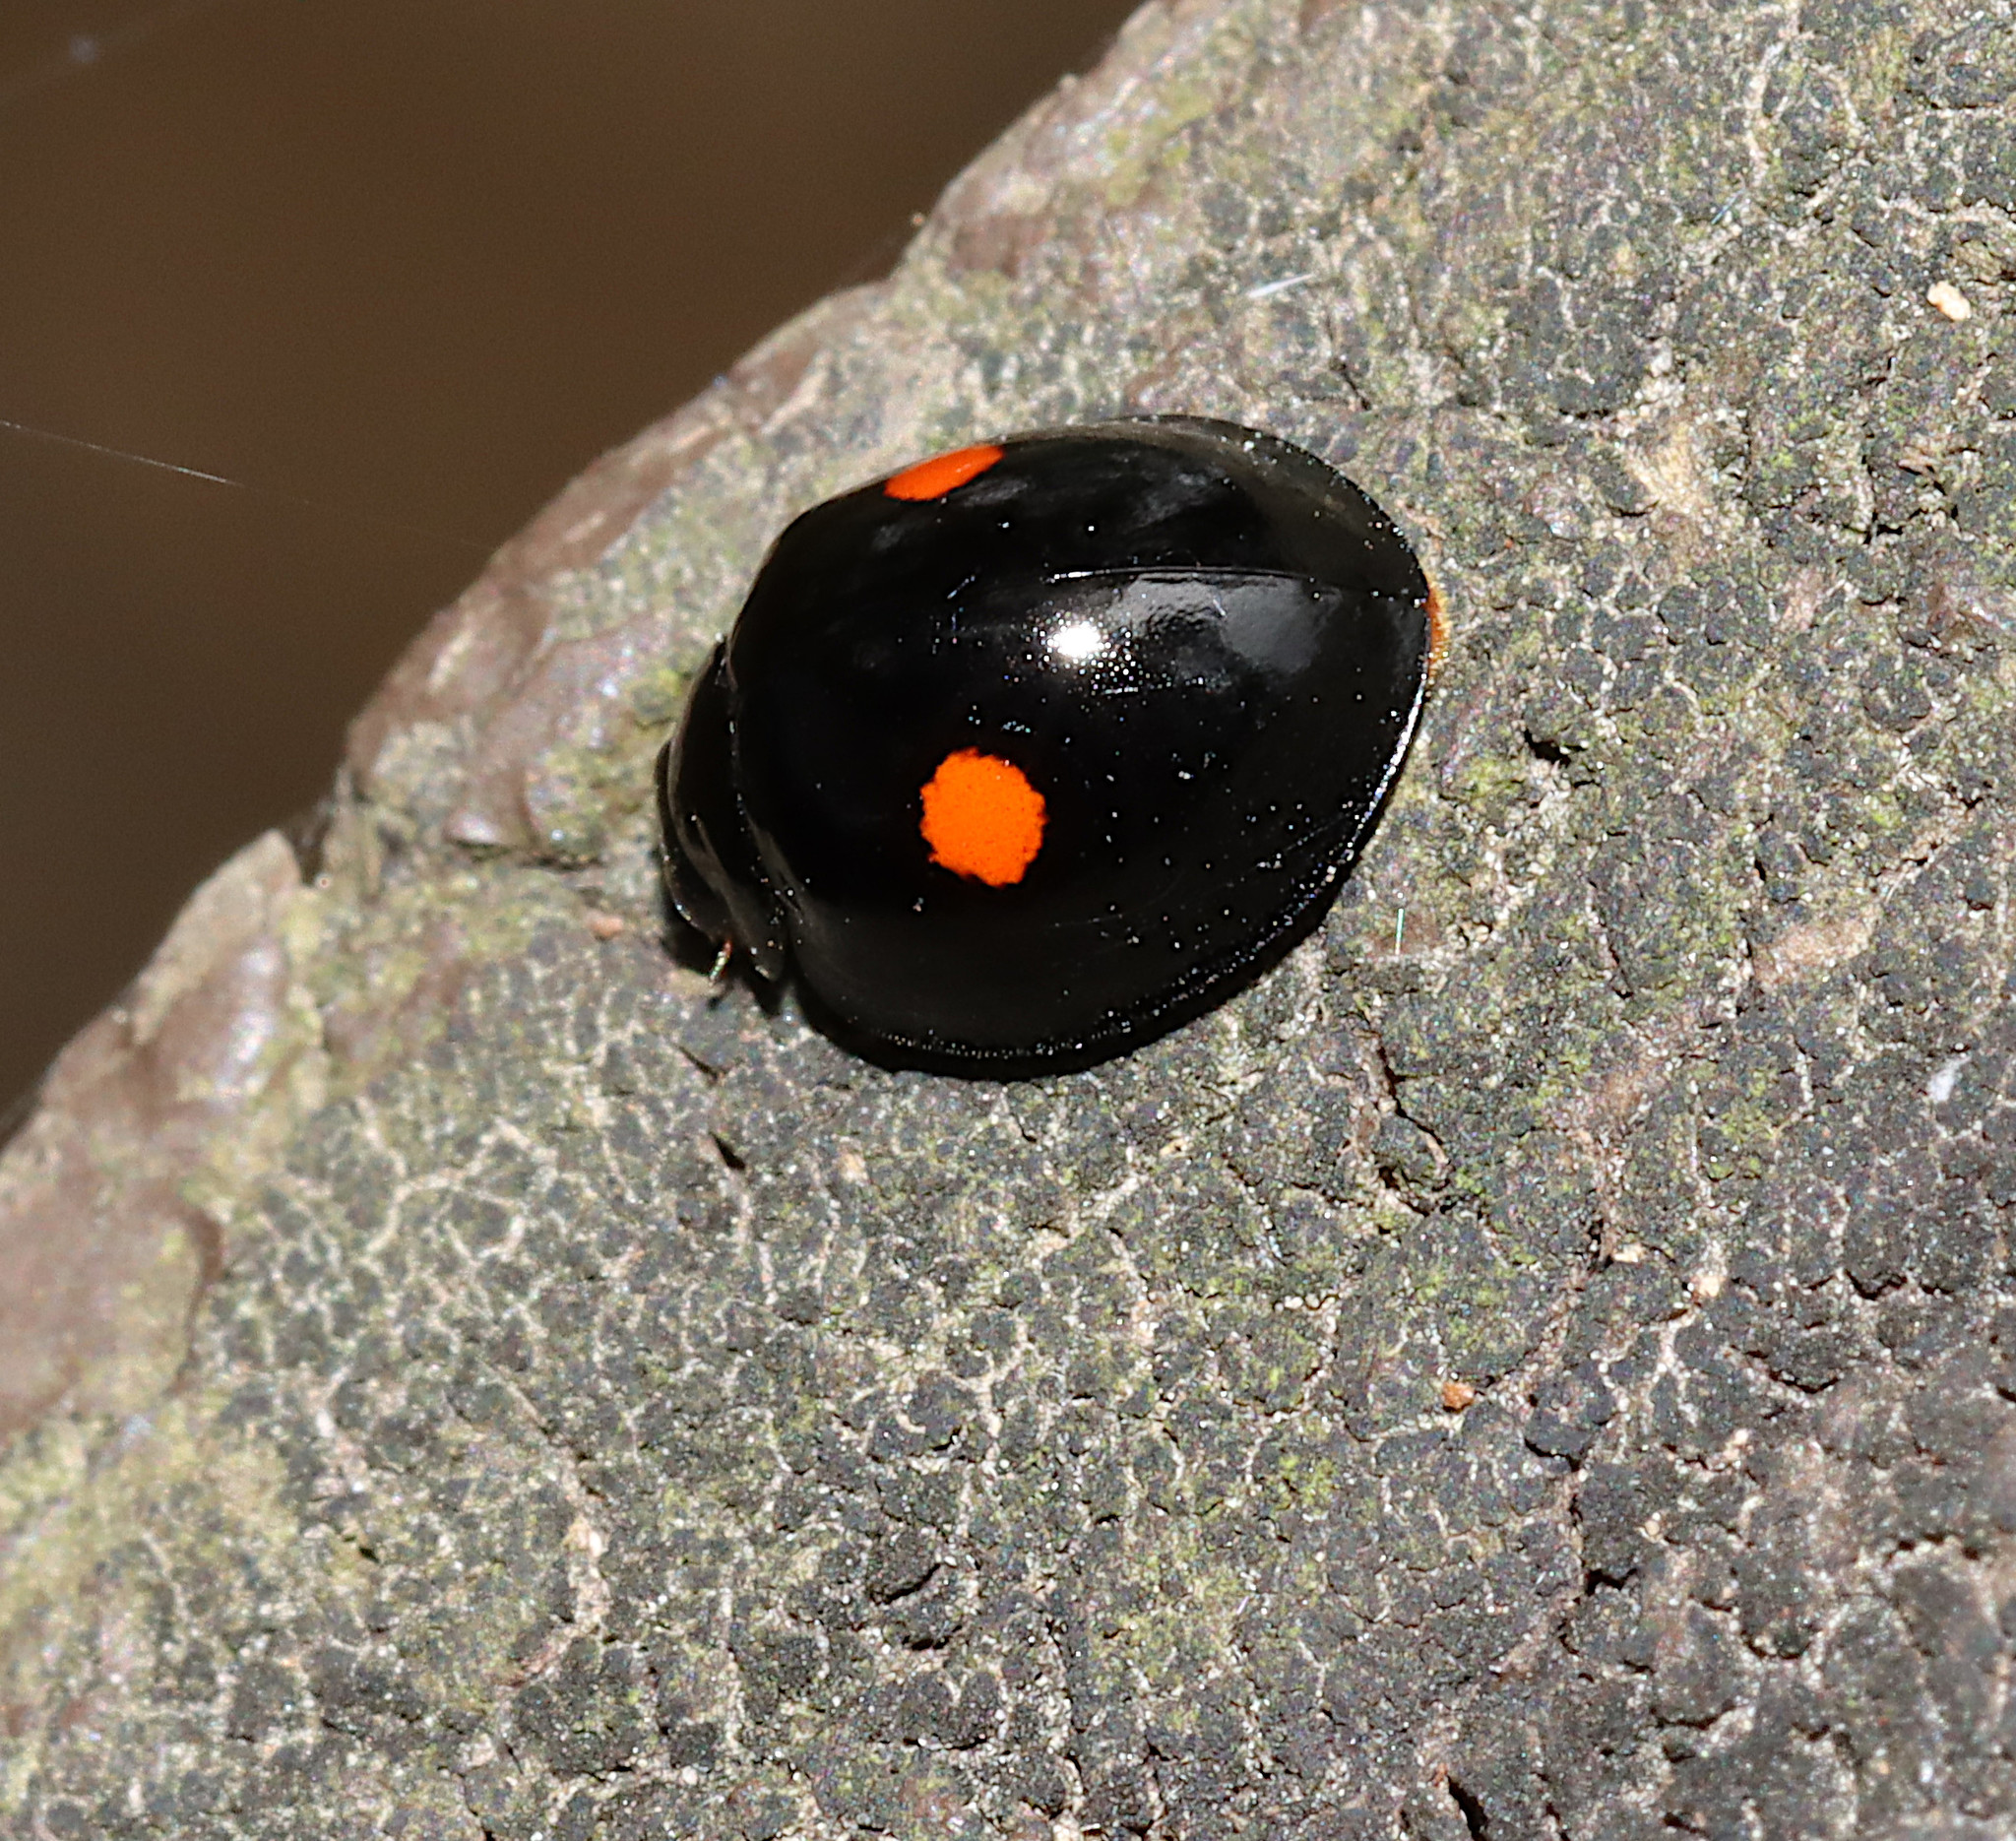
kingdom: Animalia
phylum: Arthropoda
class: Insecta
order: Coleoptera
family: Coccinellidae
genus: Chilocorus
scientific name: Chilocorus stigma
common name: Twicestabbed lady beetle
